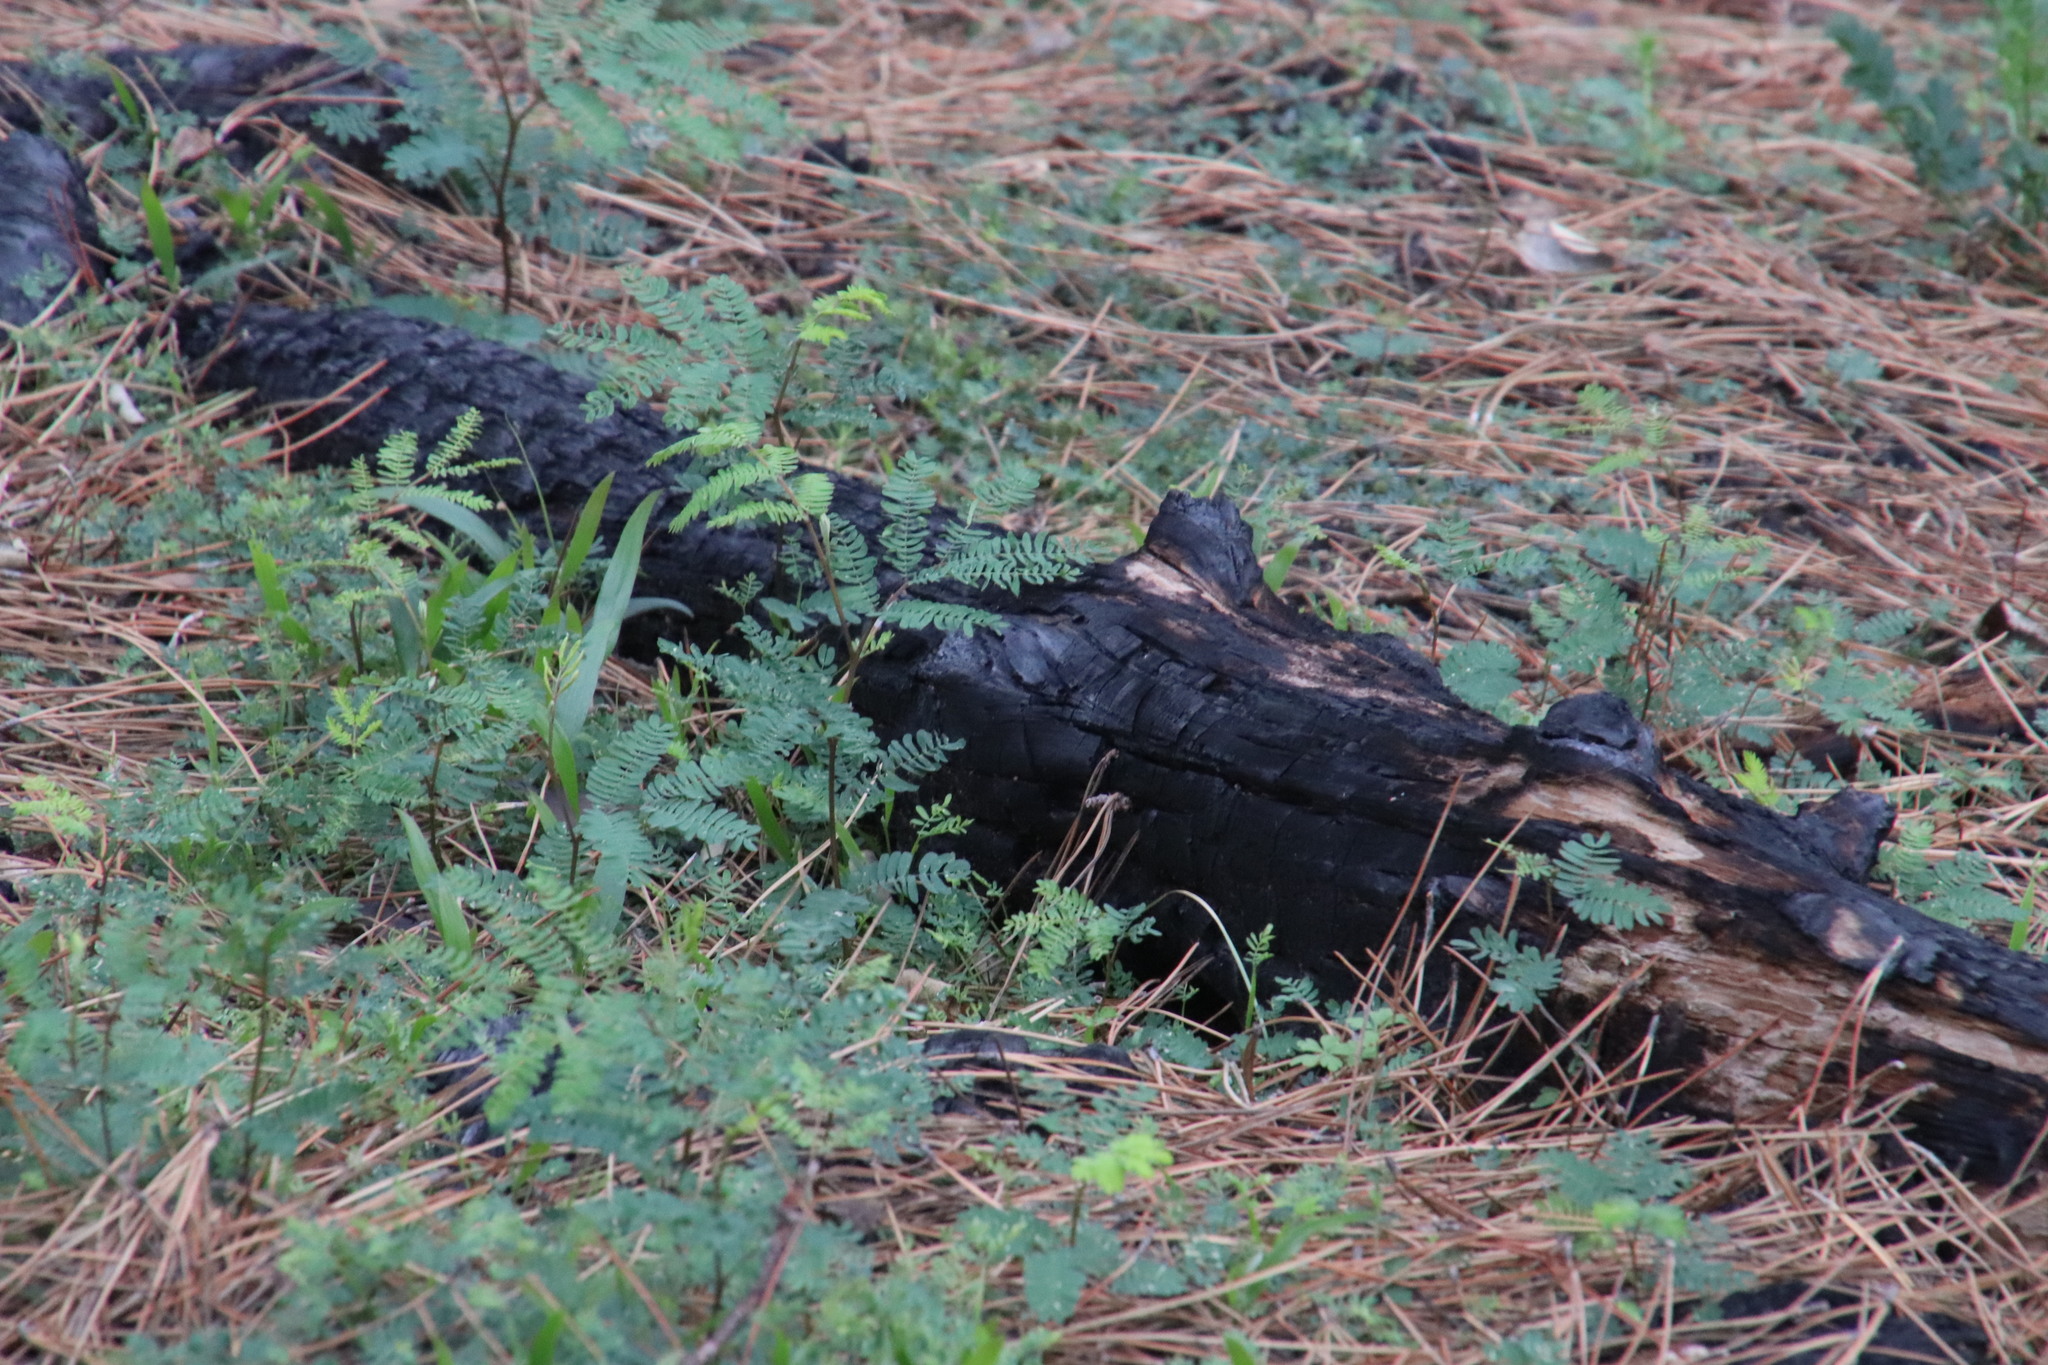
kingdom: Plantae
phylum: Tracheophyta
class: Magnoliopsida
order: Fabales
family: Fabaceae
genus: Paraserianthes
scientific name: Paraserianthes lophantha
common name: Plume albizia
